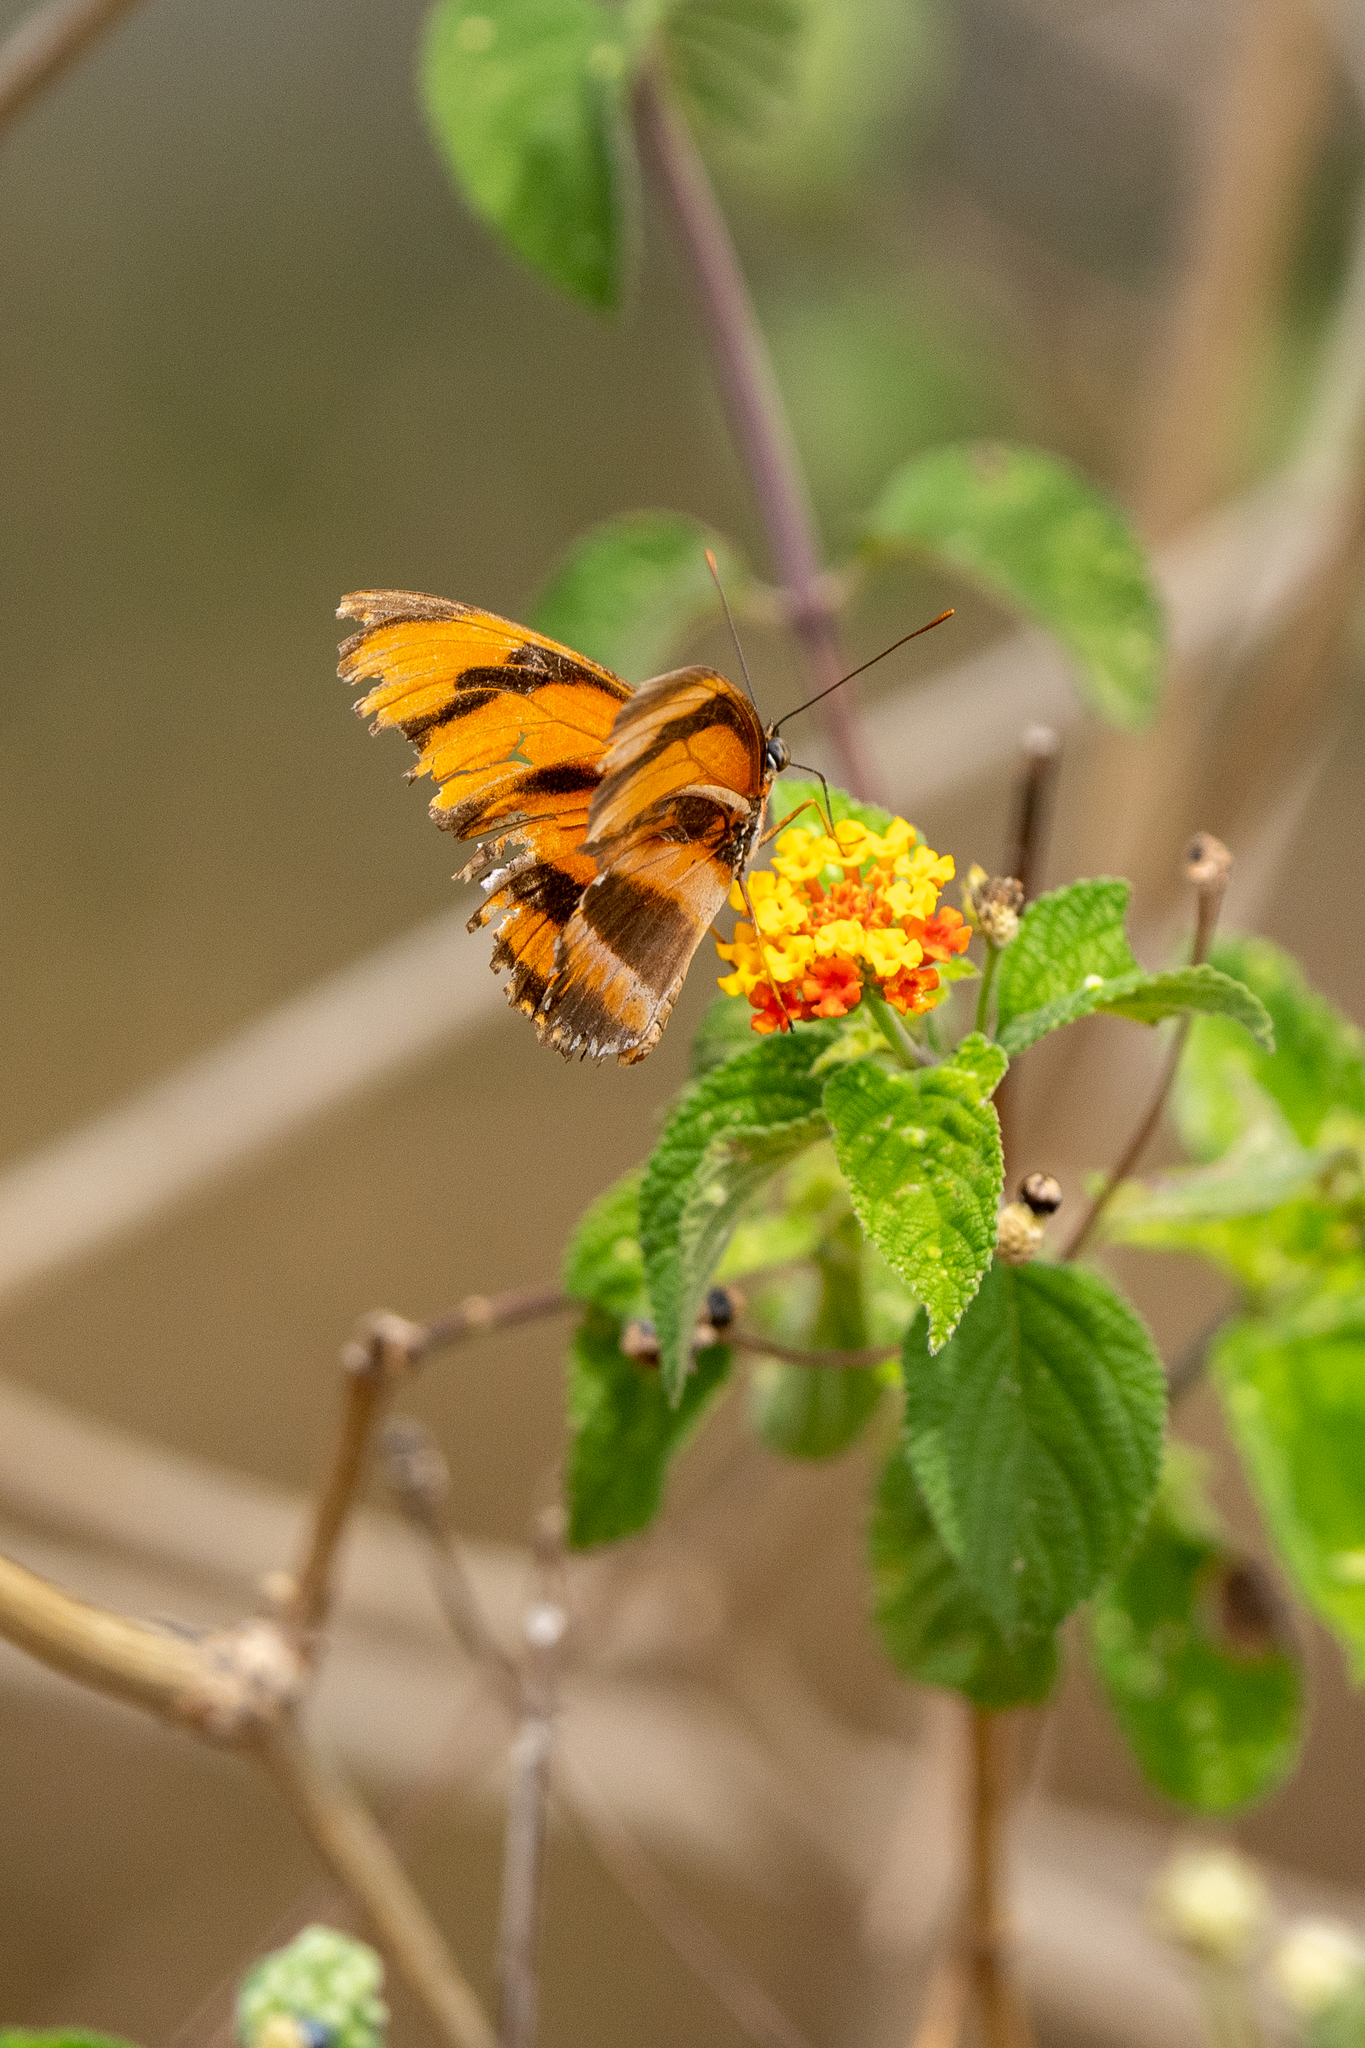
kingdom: Animalia
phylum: Arthropoda
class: Insecta
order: Lepidoptera
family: Nymphalidae
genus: Dryadula
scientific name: Dryadula phaetusa
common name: Banded orange heliconian
